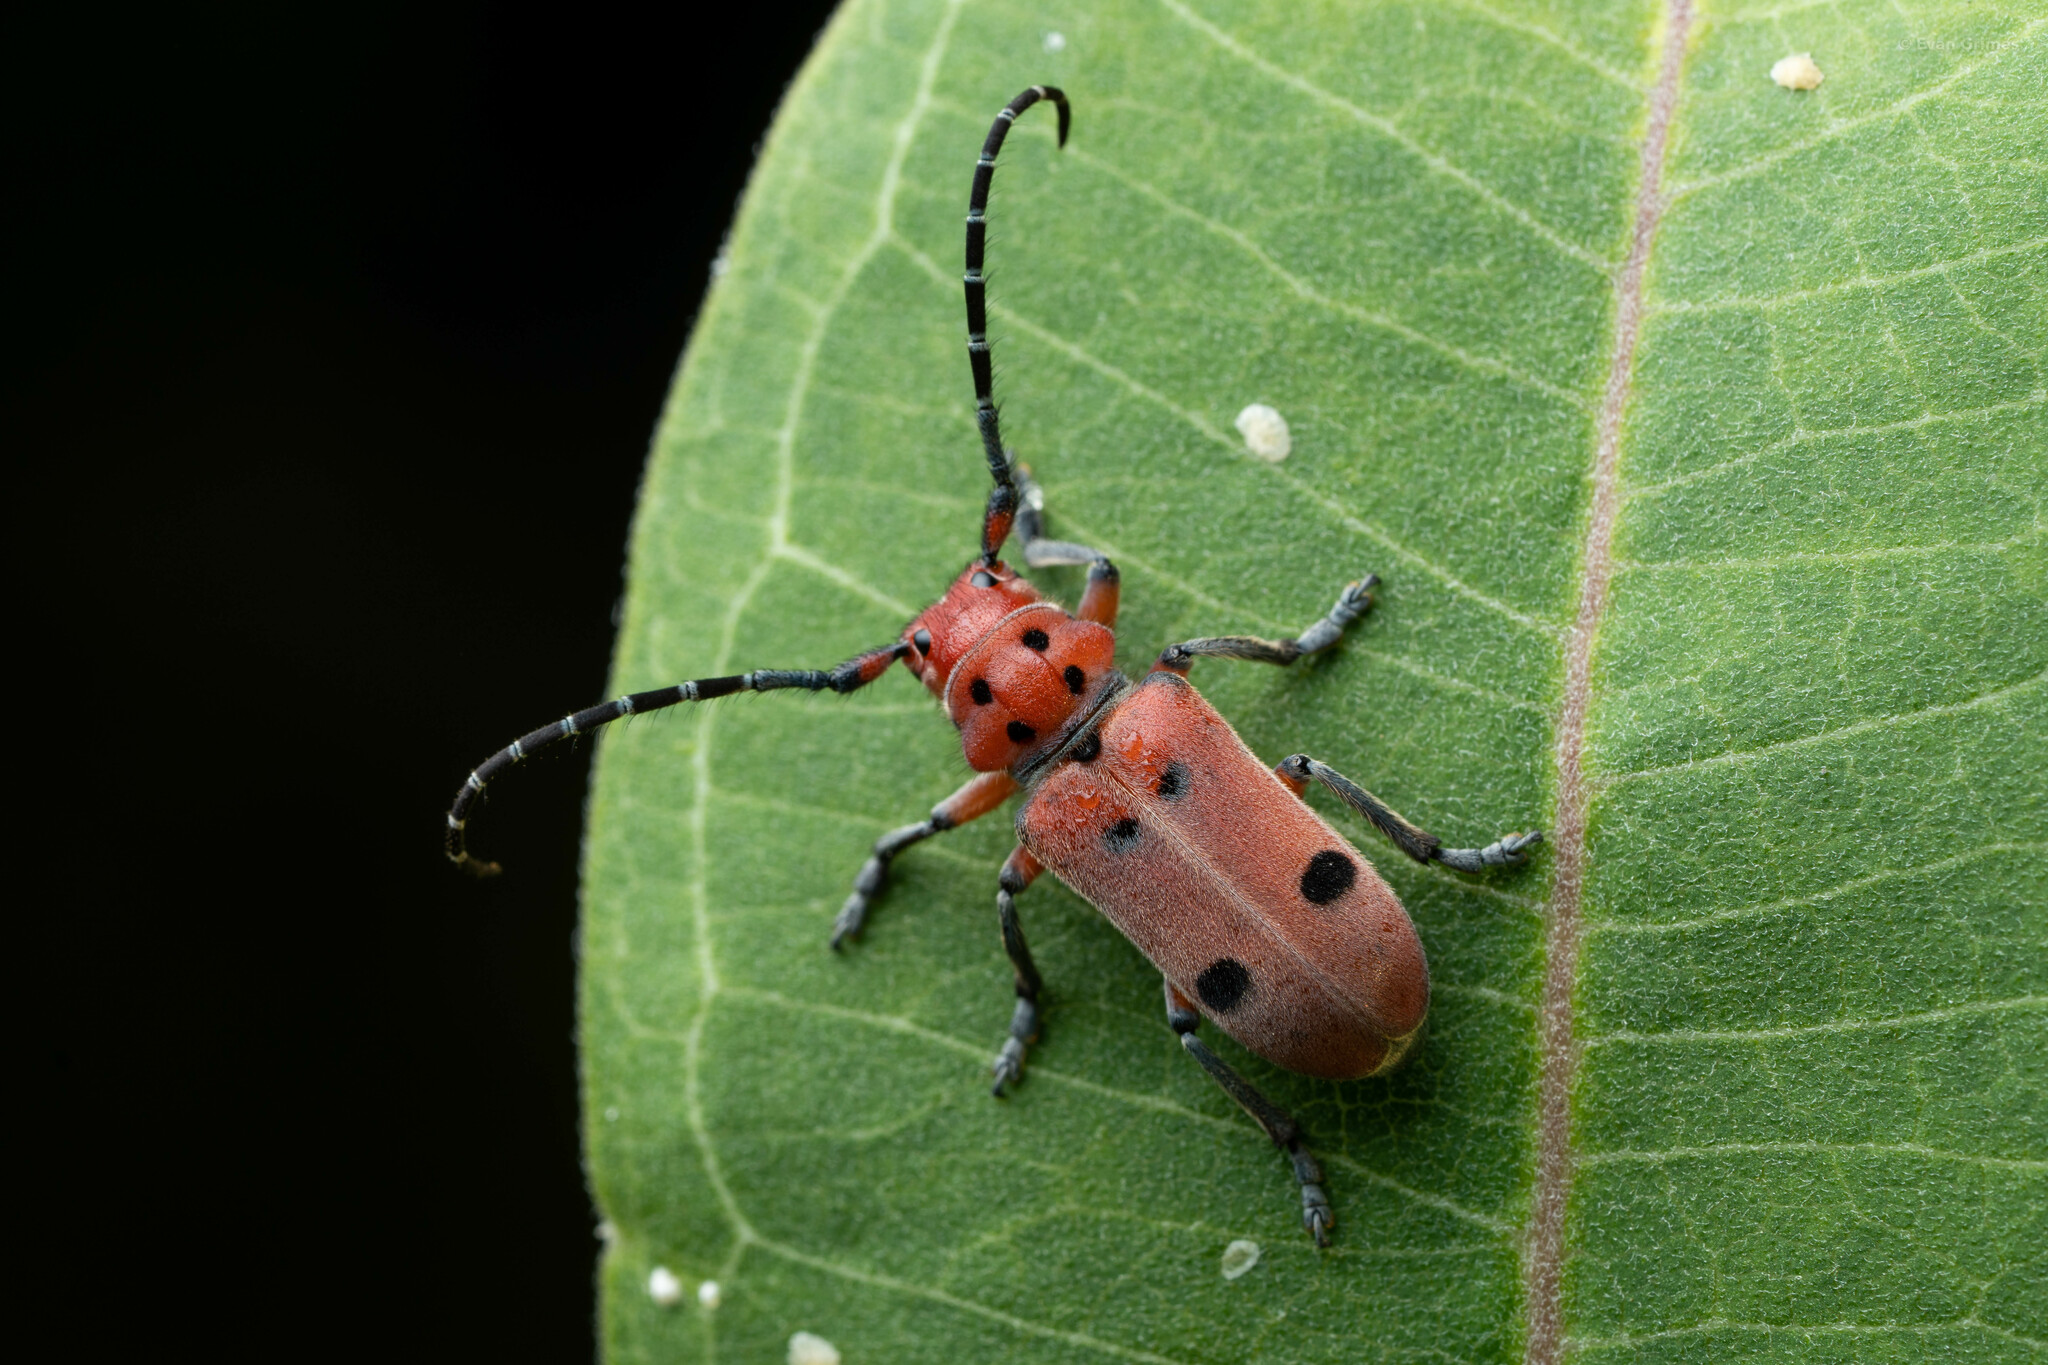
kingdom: Animalia
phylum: Arthropoda
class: Insecta
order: Coleoptera
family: Cerambycidae
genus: Tetraopes
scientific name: Tetraopes femoratus
